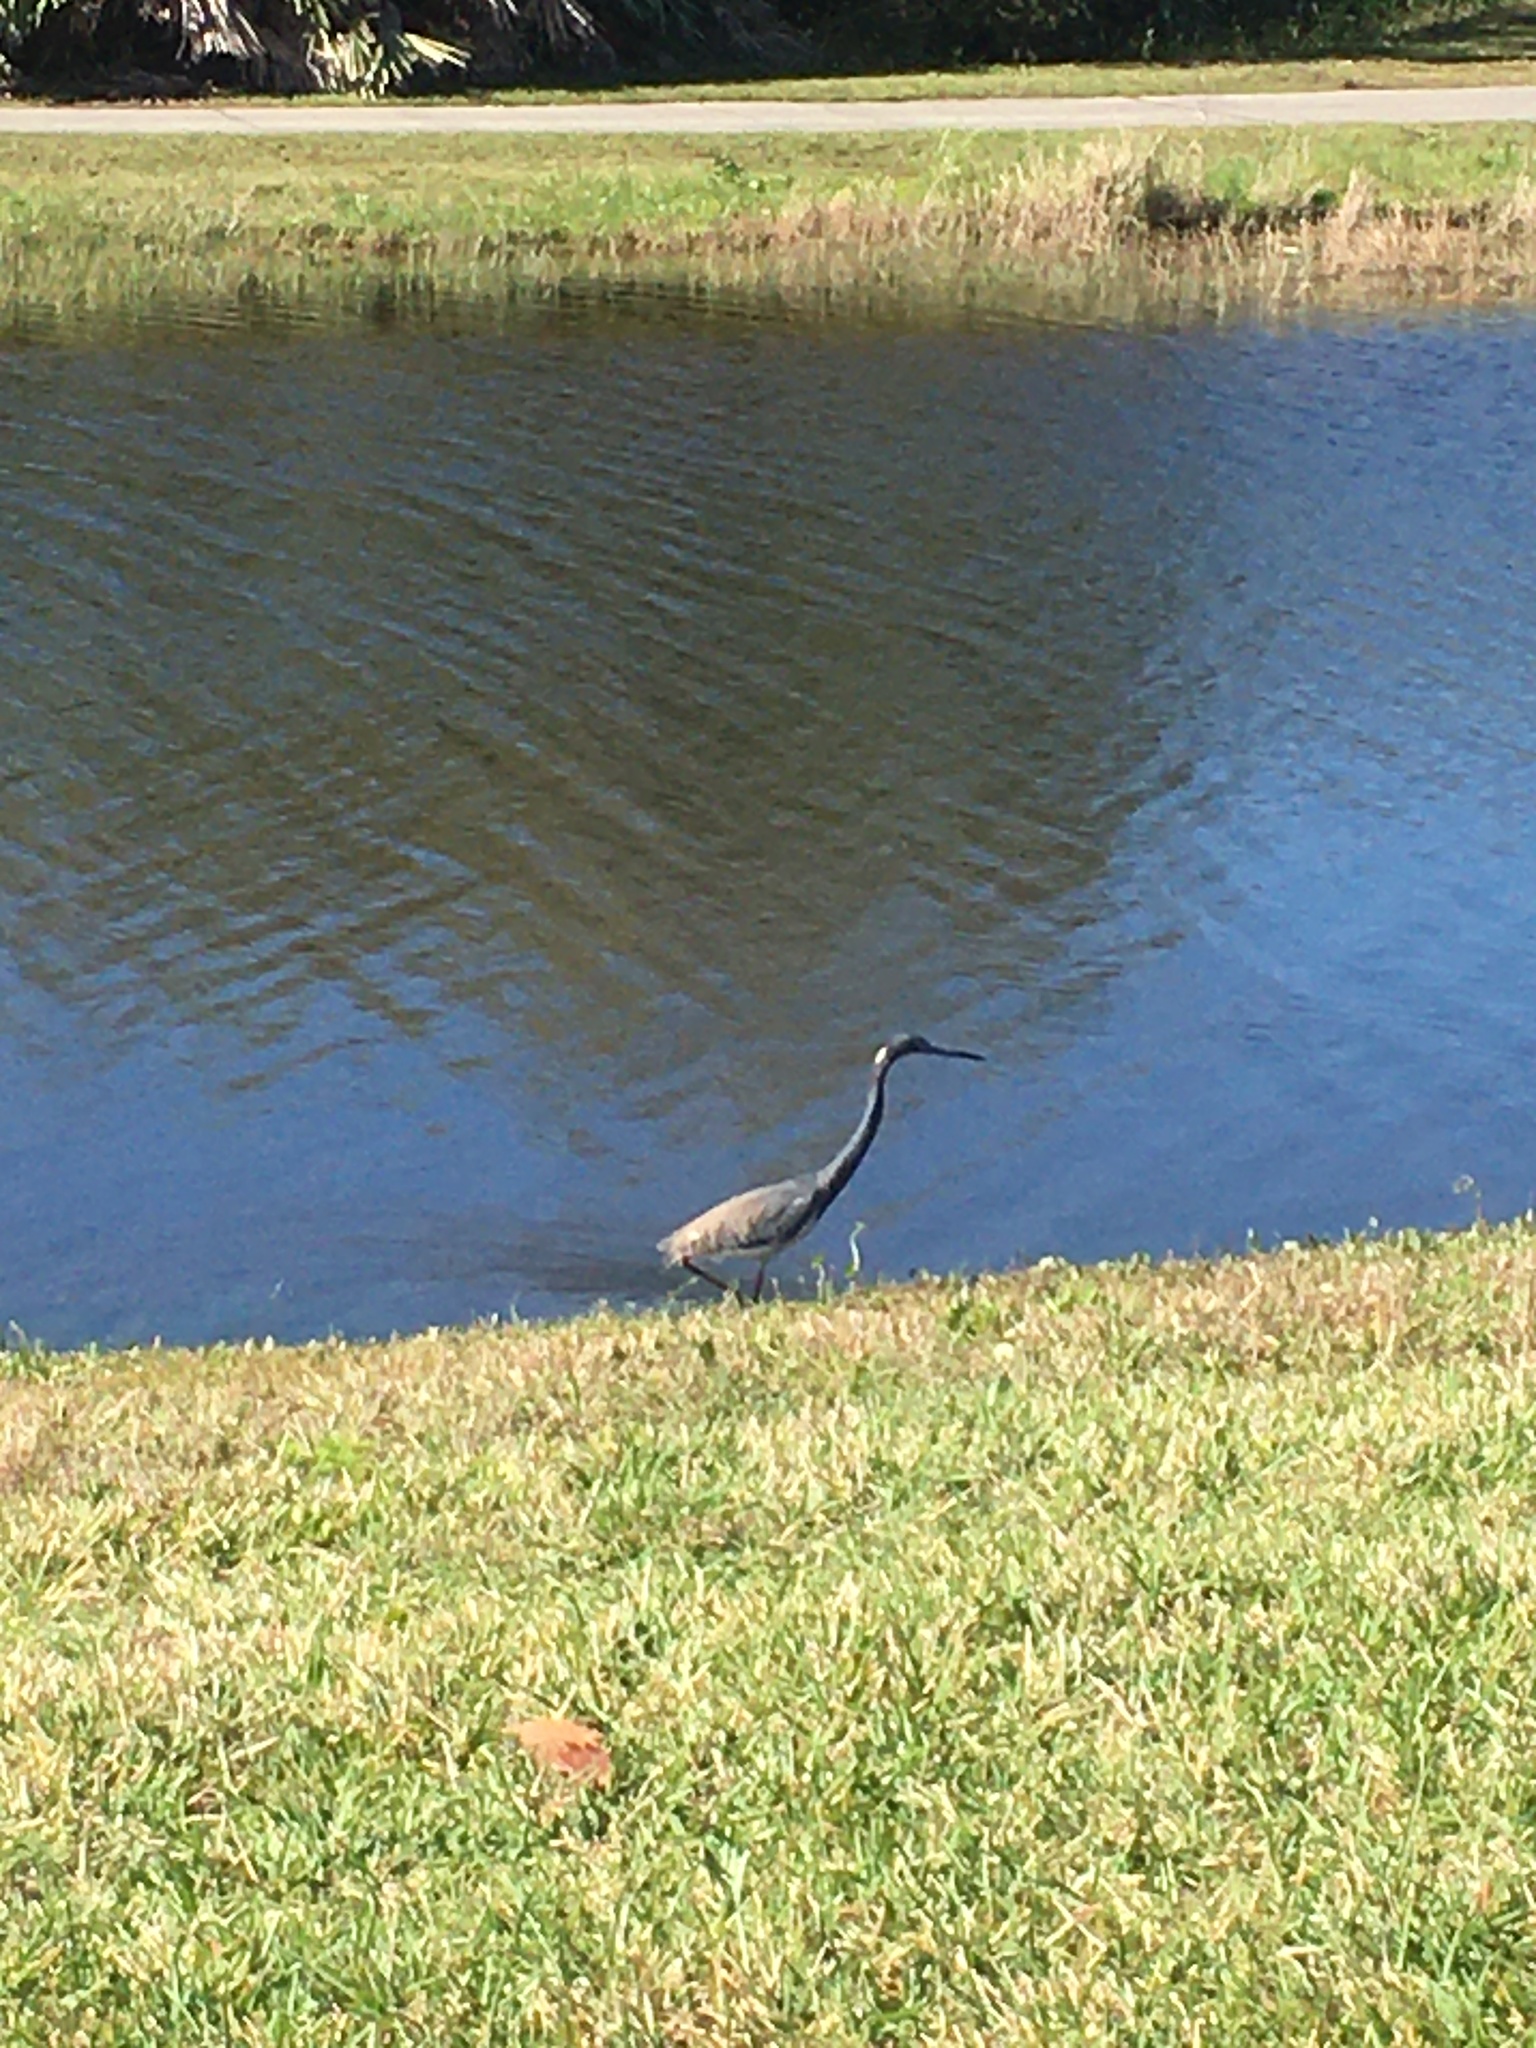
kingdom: Animalia
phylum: Chordata
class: Aves
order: Pelecaniformes
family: Ardeidae
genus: Egretta
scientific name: Egretta tricolor
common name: Tricolored heron
